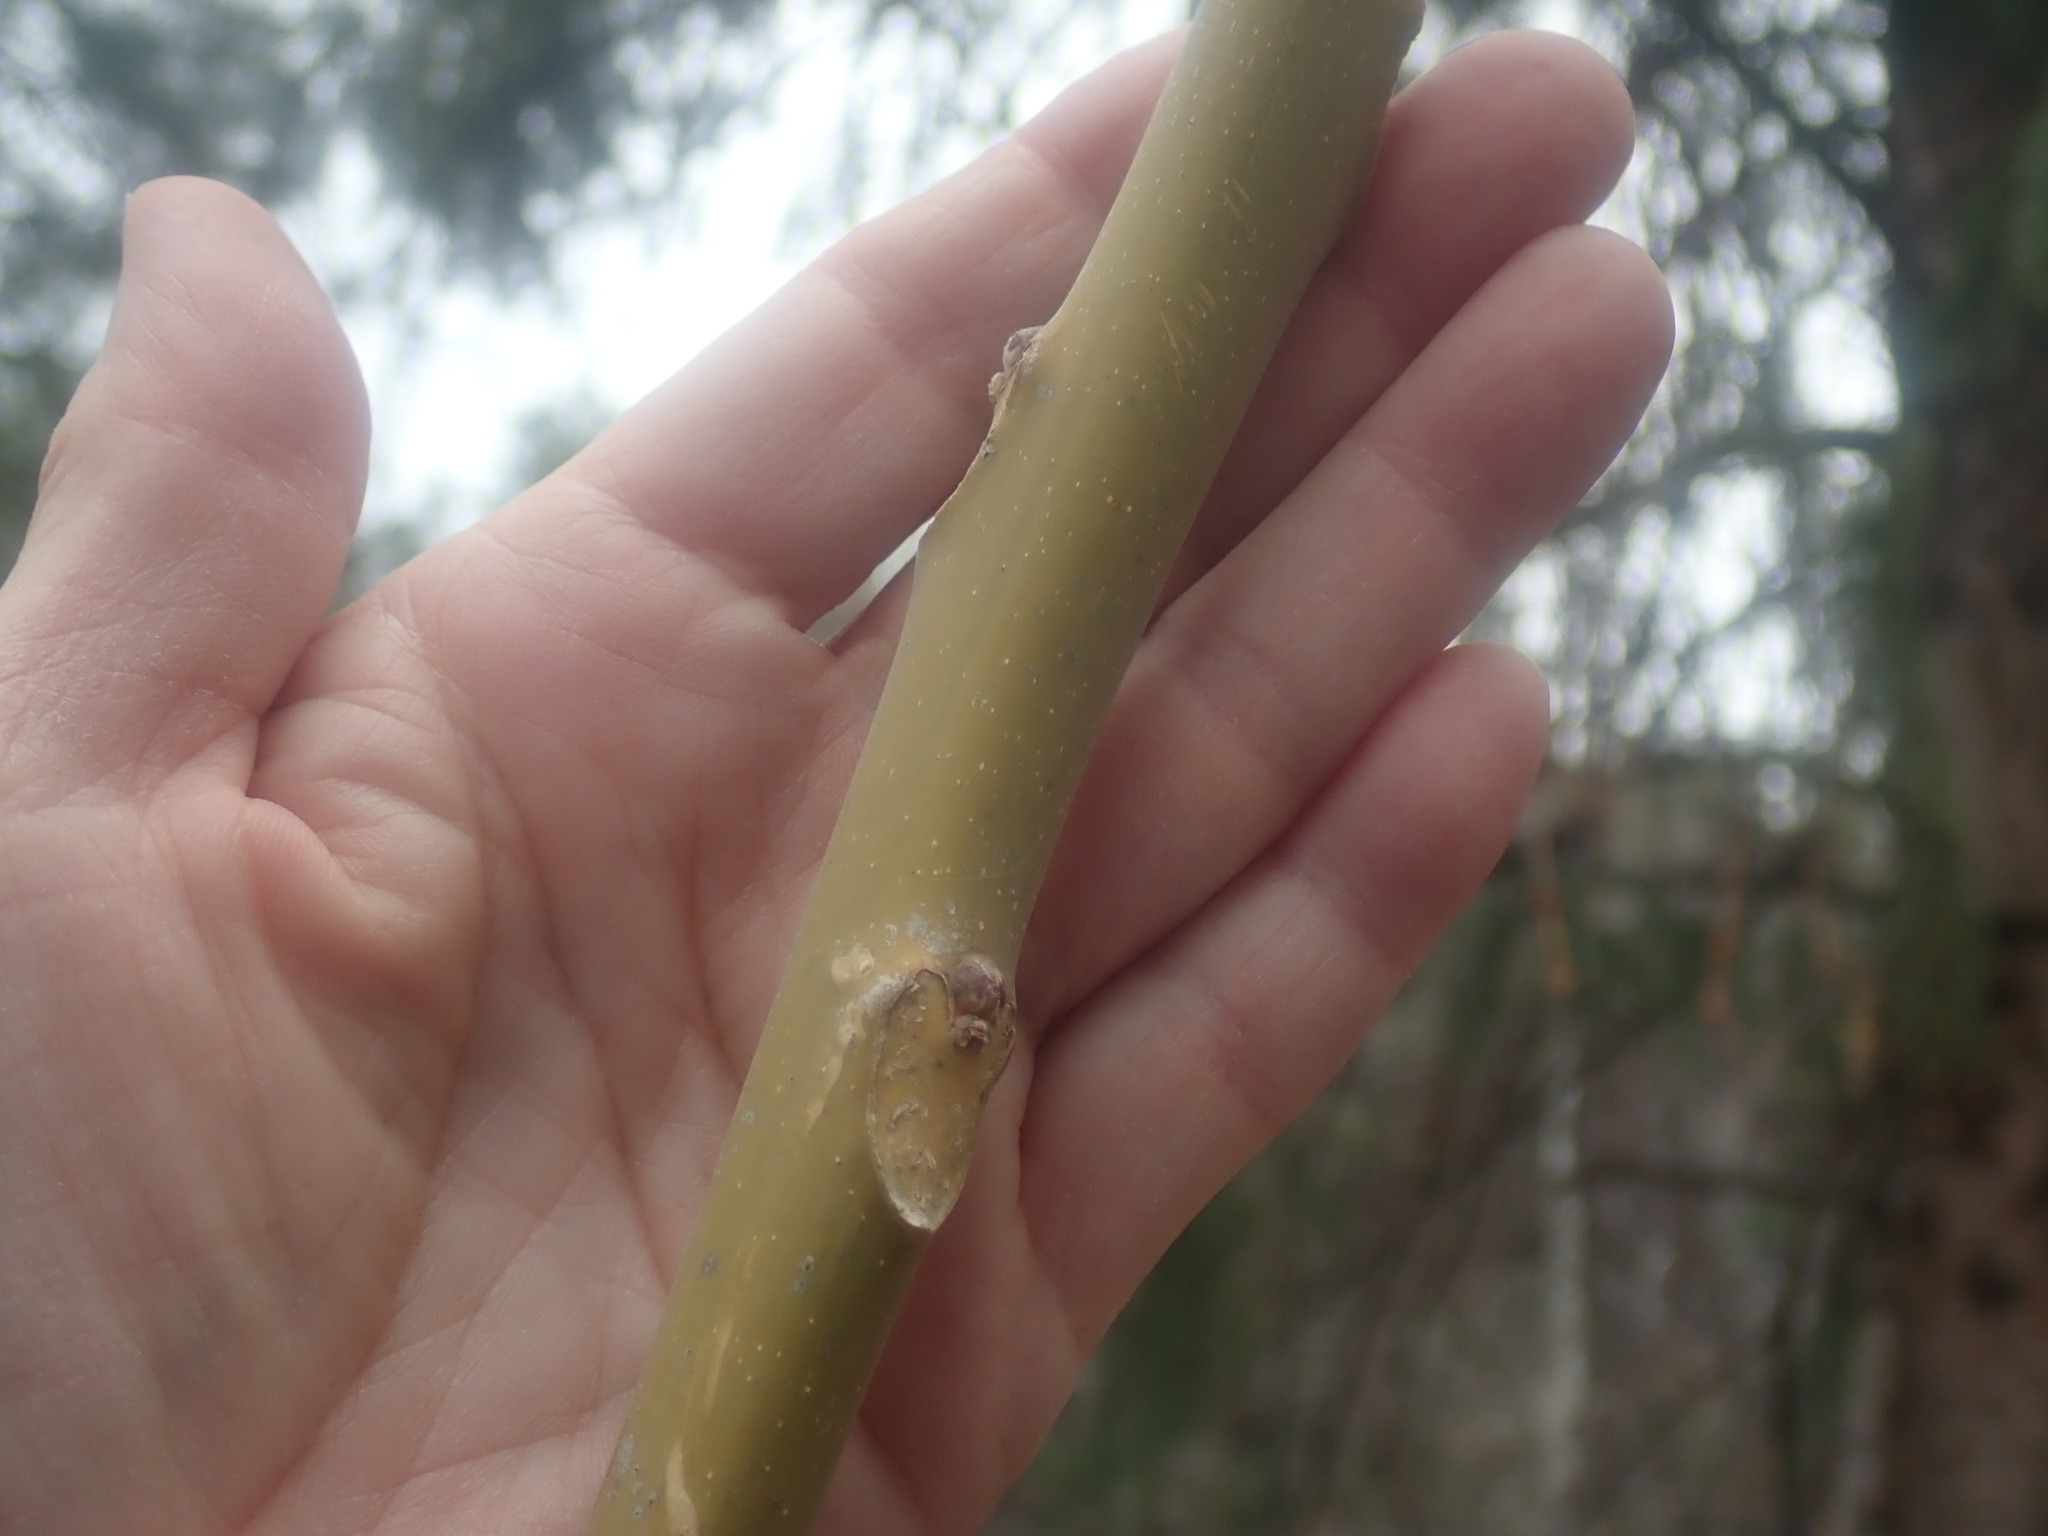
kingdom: Plantae
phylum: Tracheophyta
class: Magnoliopsida
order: Sapindales
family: Simaroubaceae
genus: Ailanthus
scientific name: Ailanthus altissima
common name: Tree-of-heaven
